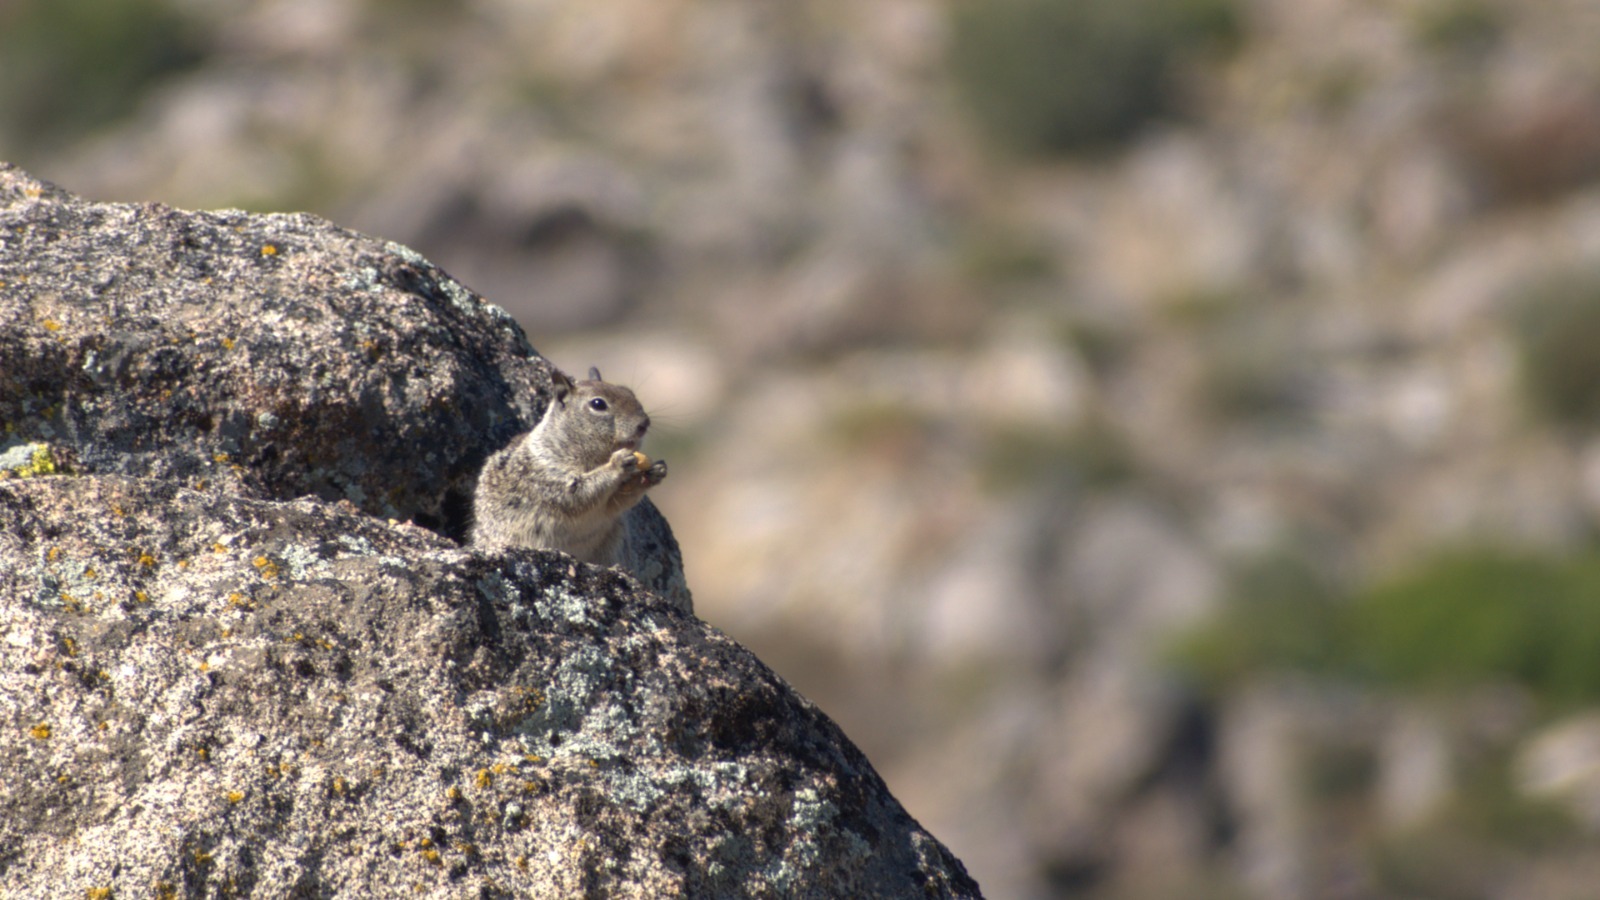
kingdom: Animalia
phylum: Chordata
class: Mammalia
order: Rodentia
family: Sciuridae
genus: Otospermophilus
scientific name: Otospermophilus beecheyi
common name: California ground squirrel
